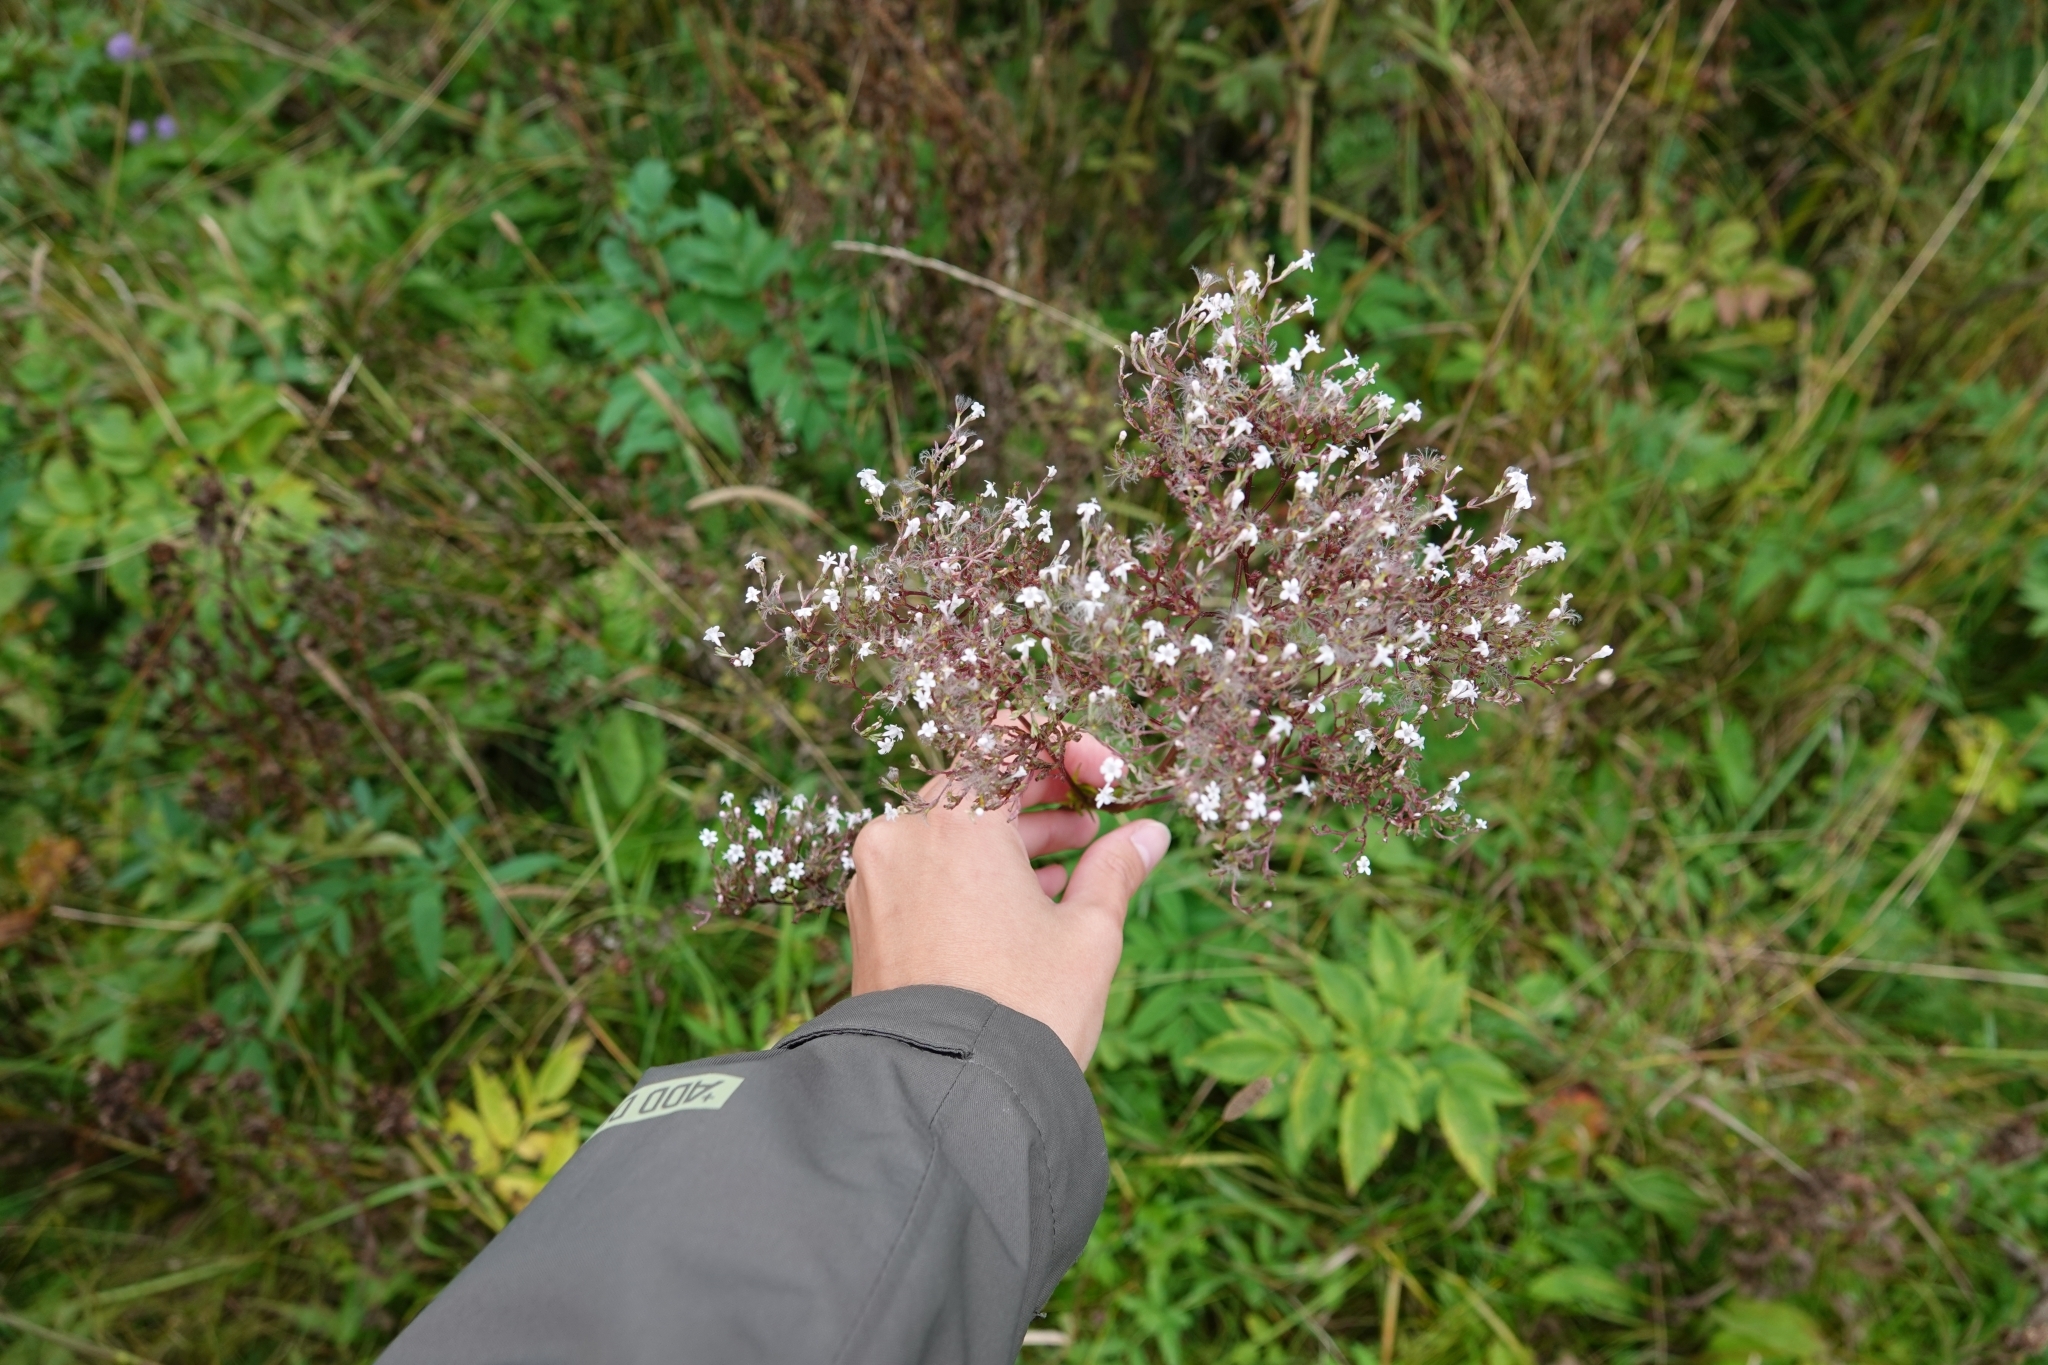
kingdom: Plantae
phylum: Tracheophyta
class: Magnoliopsida
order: Dipsacales
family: Caprifoliaceae
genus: Valeriana
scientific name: Valeriana officinalis
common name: Common valerian
